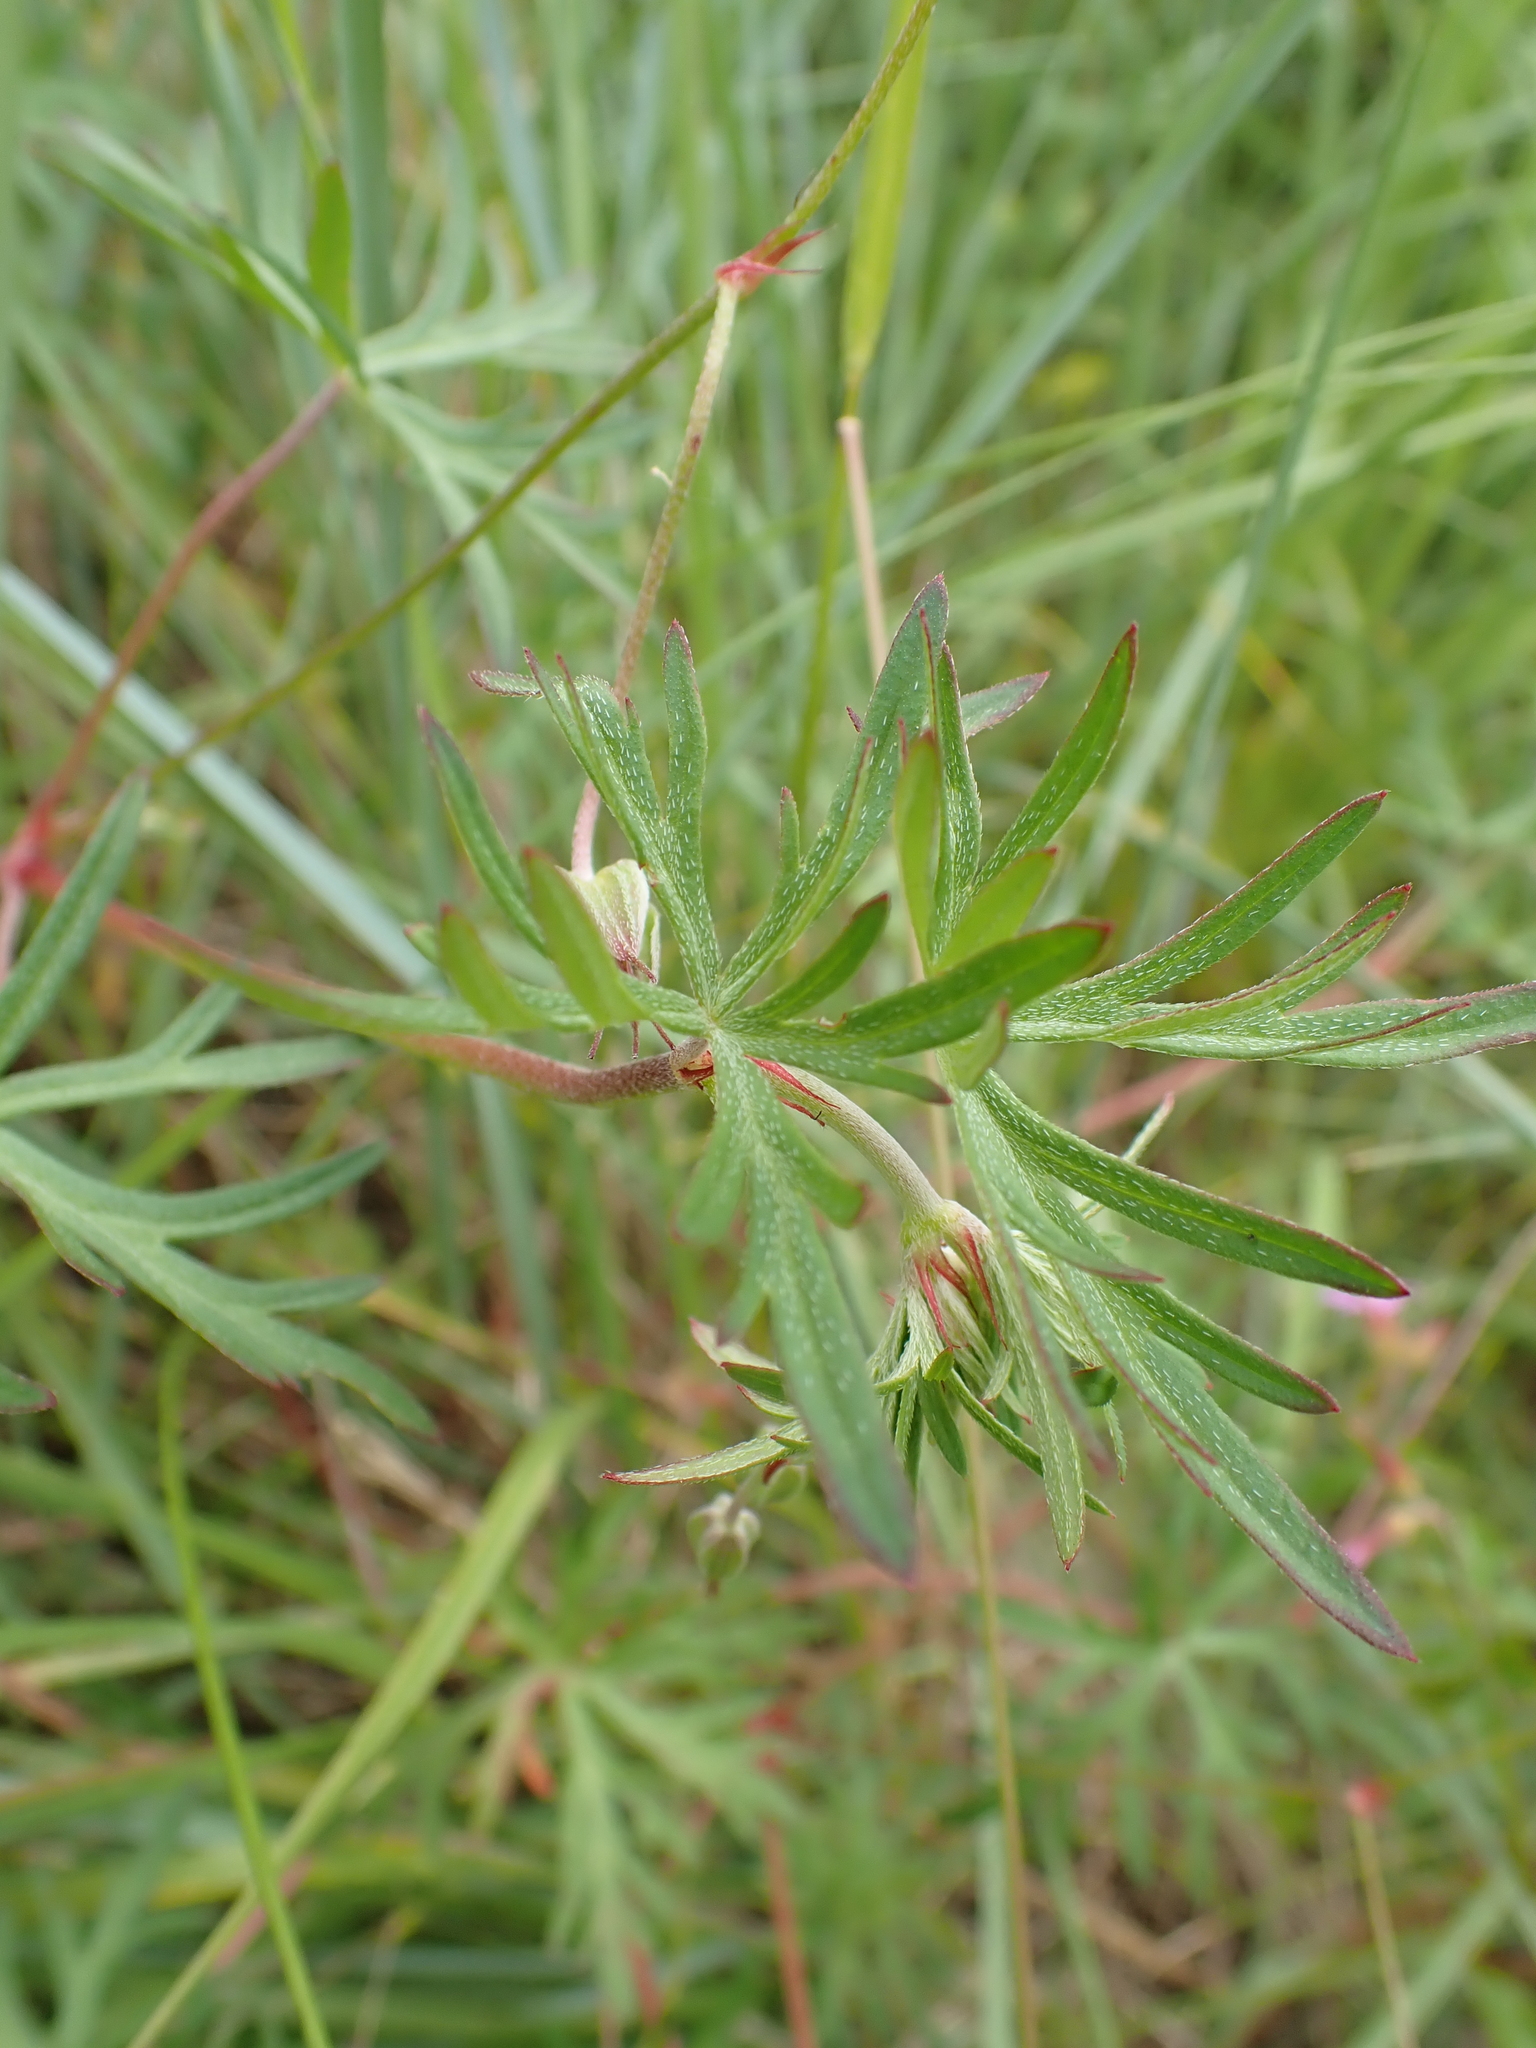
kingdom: Plantae
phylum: Tracheophyta
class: Magnoliopsida
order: Geraniales
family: Geraniaceae
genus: Geranium
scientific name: Geranium columbinum
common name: Long-stalked crane's-bill
